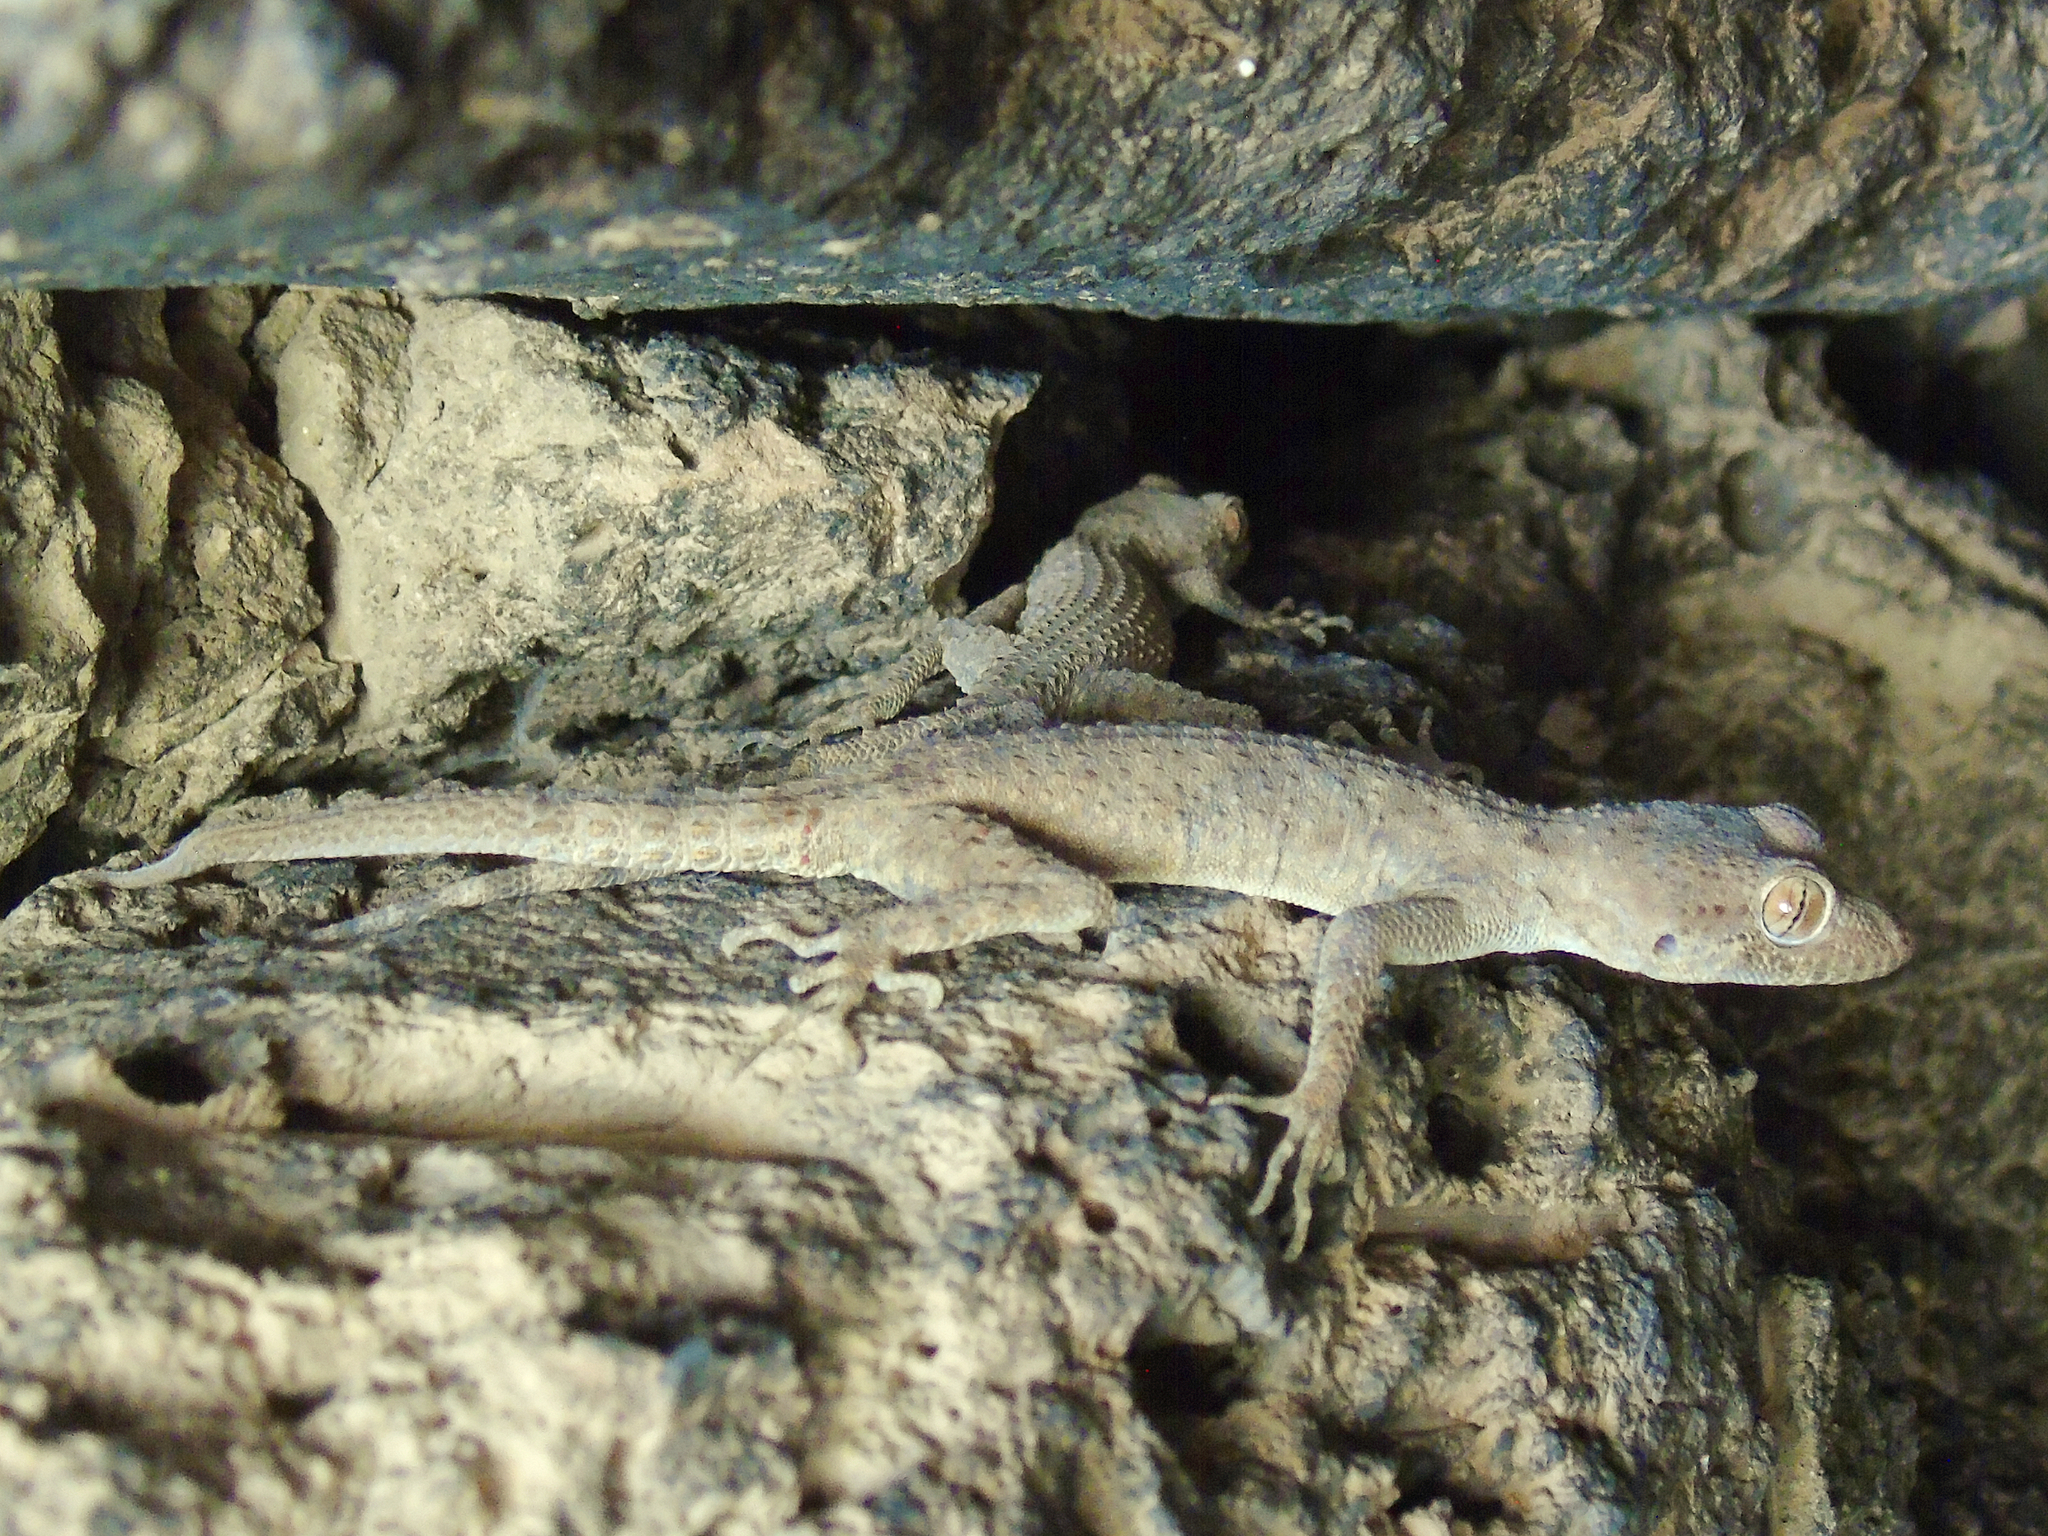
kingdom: Animalia
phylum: Chordata
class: Squamata
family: Gekkonidae
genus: Tenuidactylus
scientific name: Tenuidactylus bogdanovi
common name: Bogdanov’s thin-toed gecko
